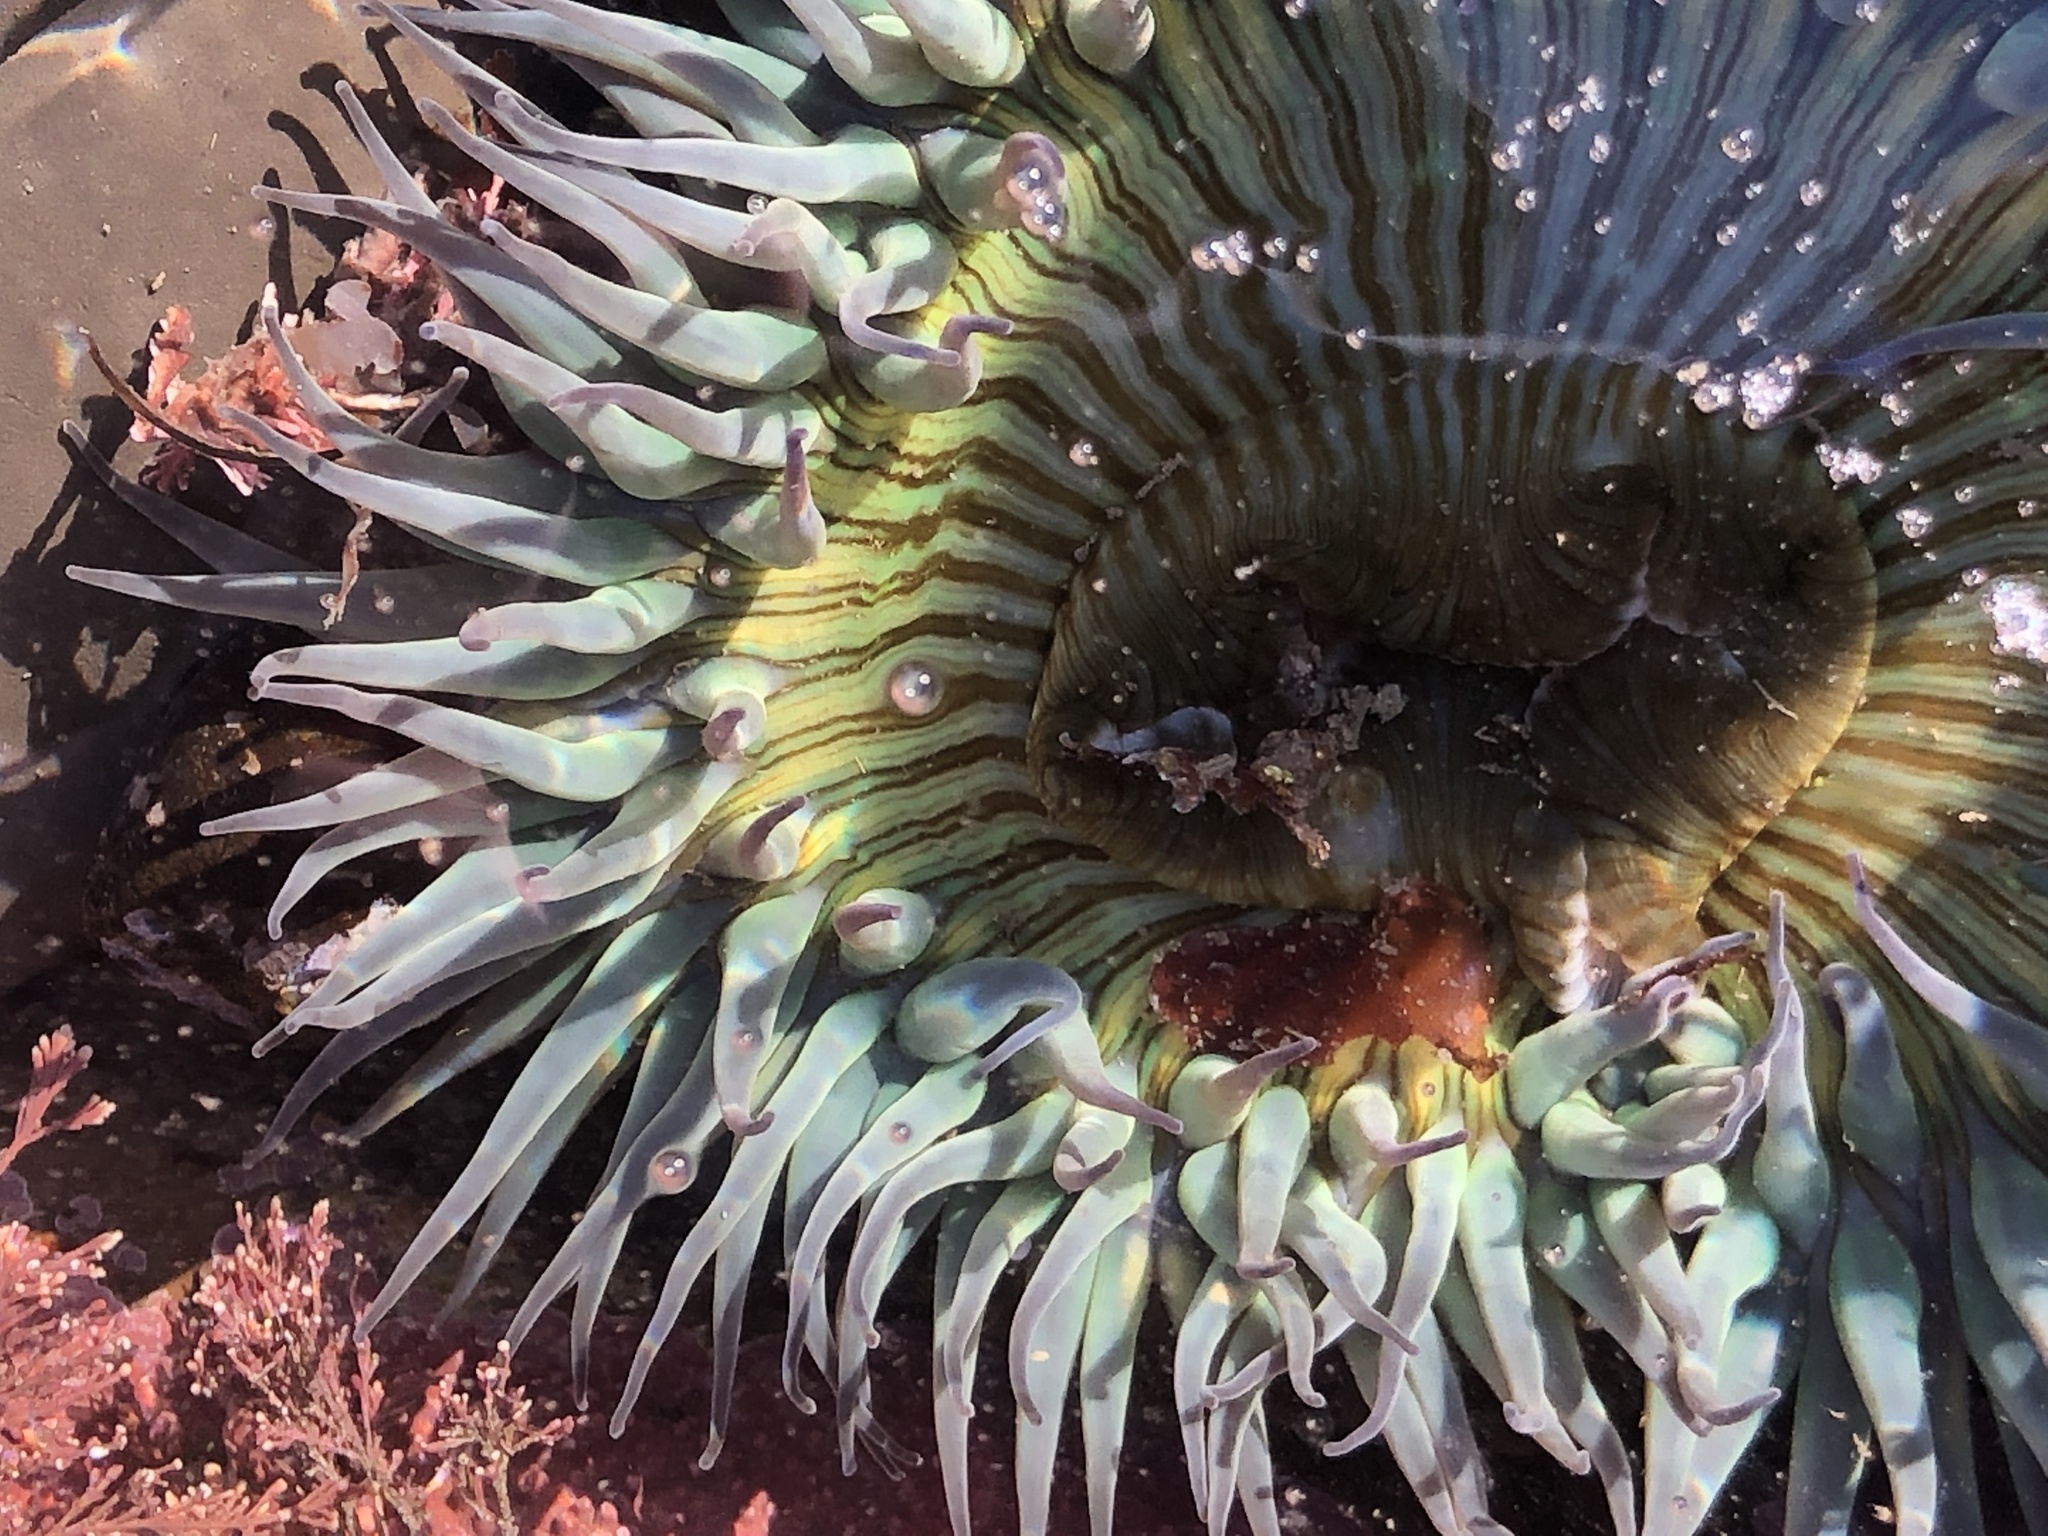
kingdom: Animalia
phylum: Cnidaria
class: Anthozoa
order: Actiniaria
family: Actiniidae
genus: Anthopleura
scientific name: Anthopleura sola
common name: Sun anemone
